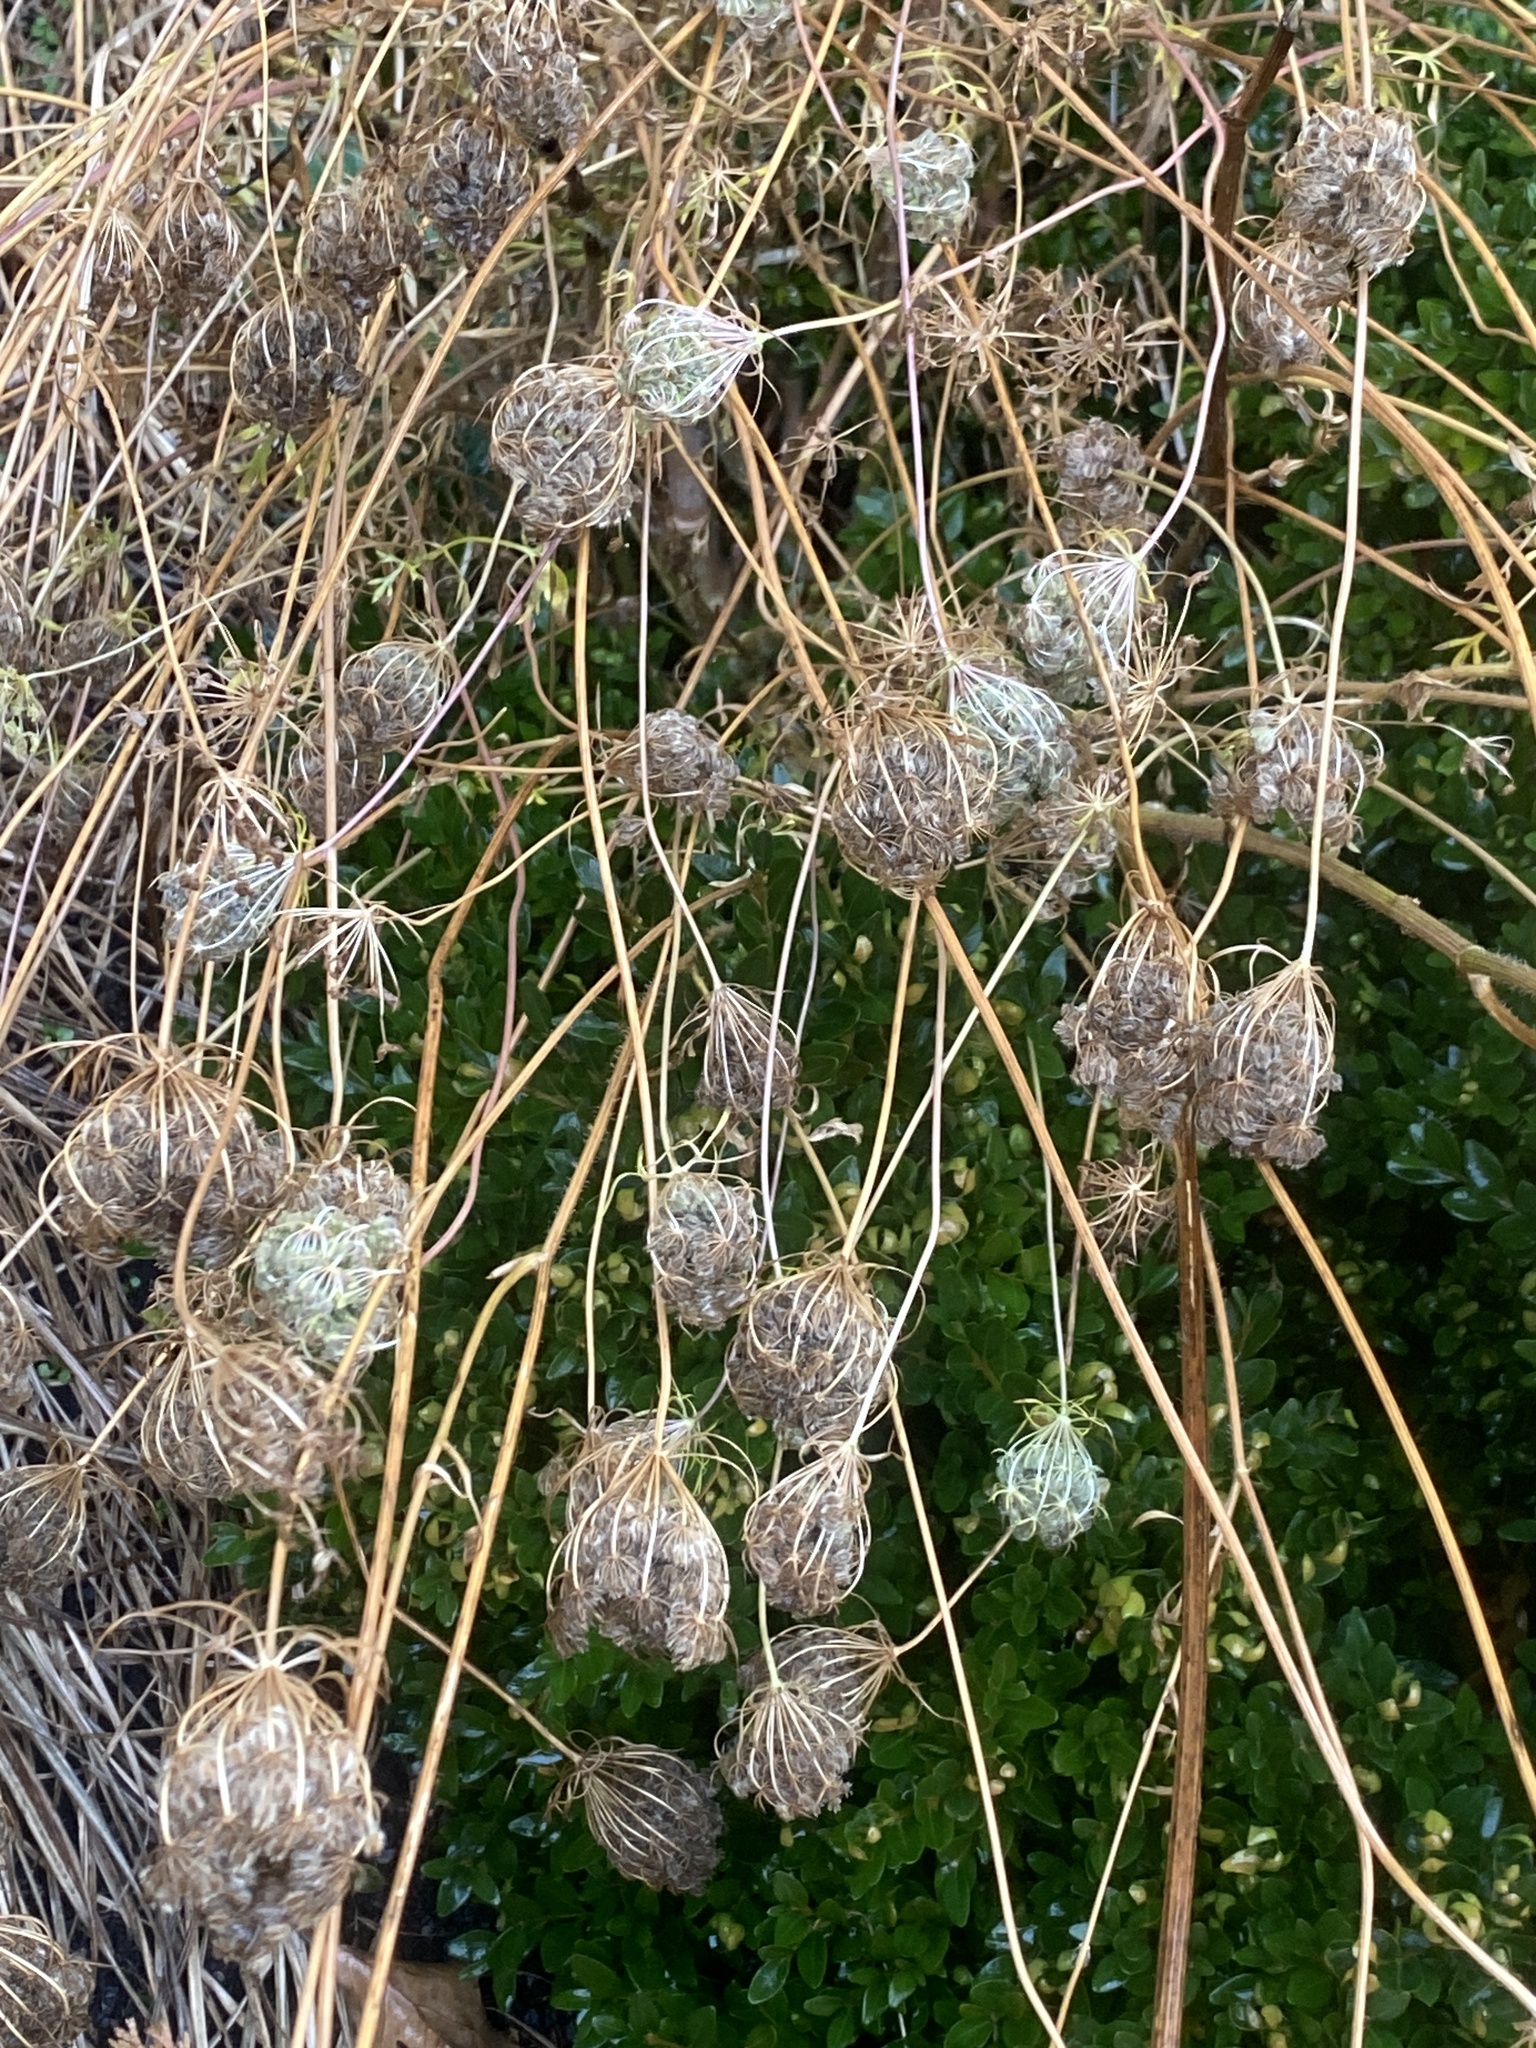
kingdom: Plantae
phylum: Tracheophyta
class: Magnoliopsida
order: Apiales
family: Apiaceae
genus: Daucus
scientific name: Daucus carota
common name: Wild carrot
